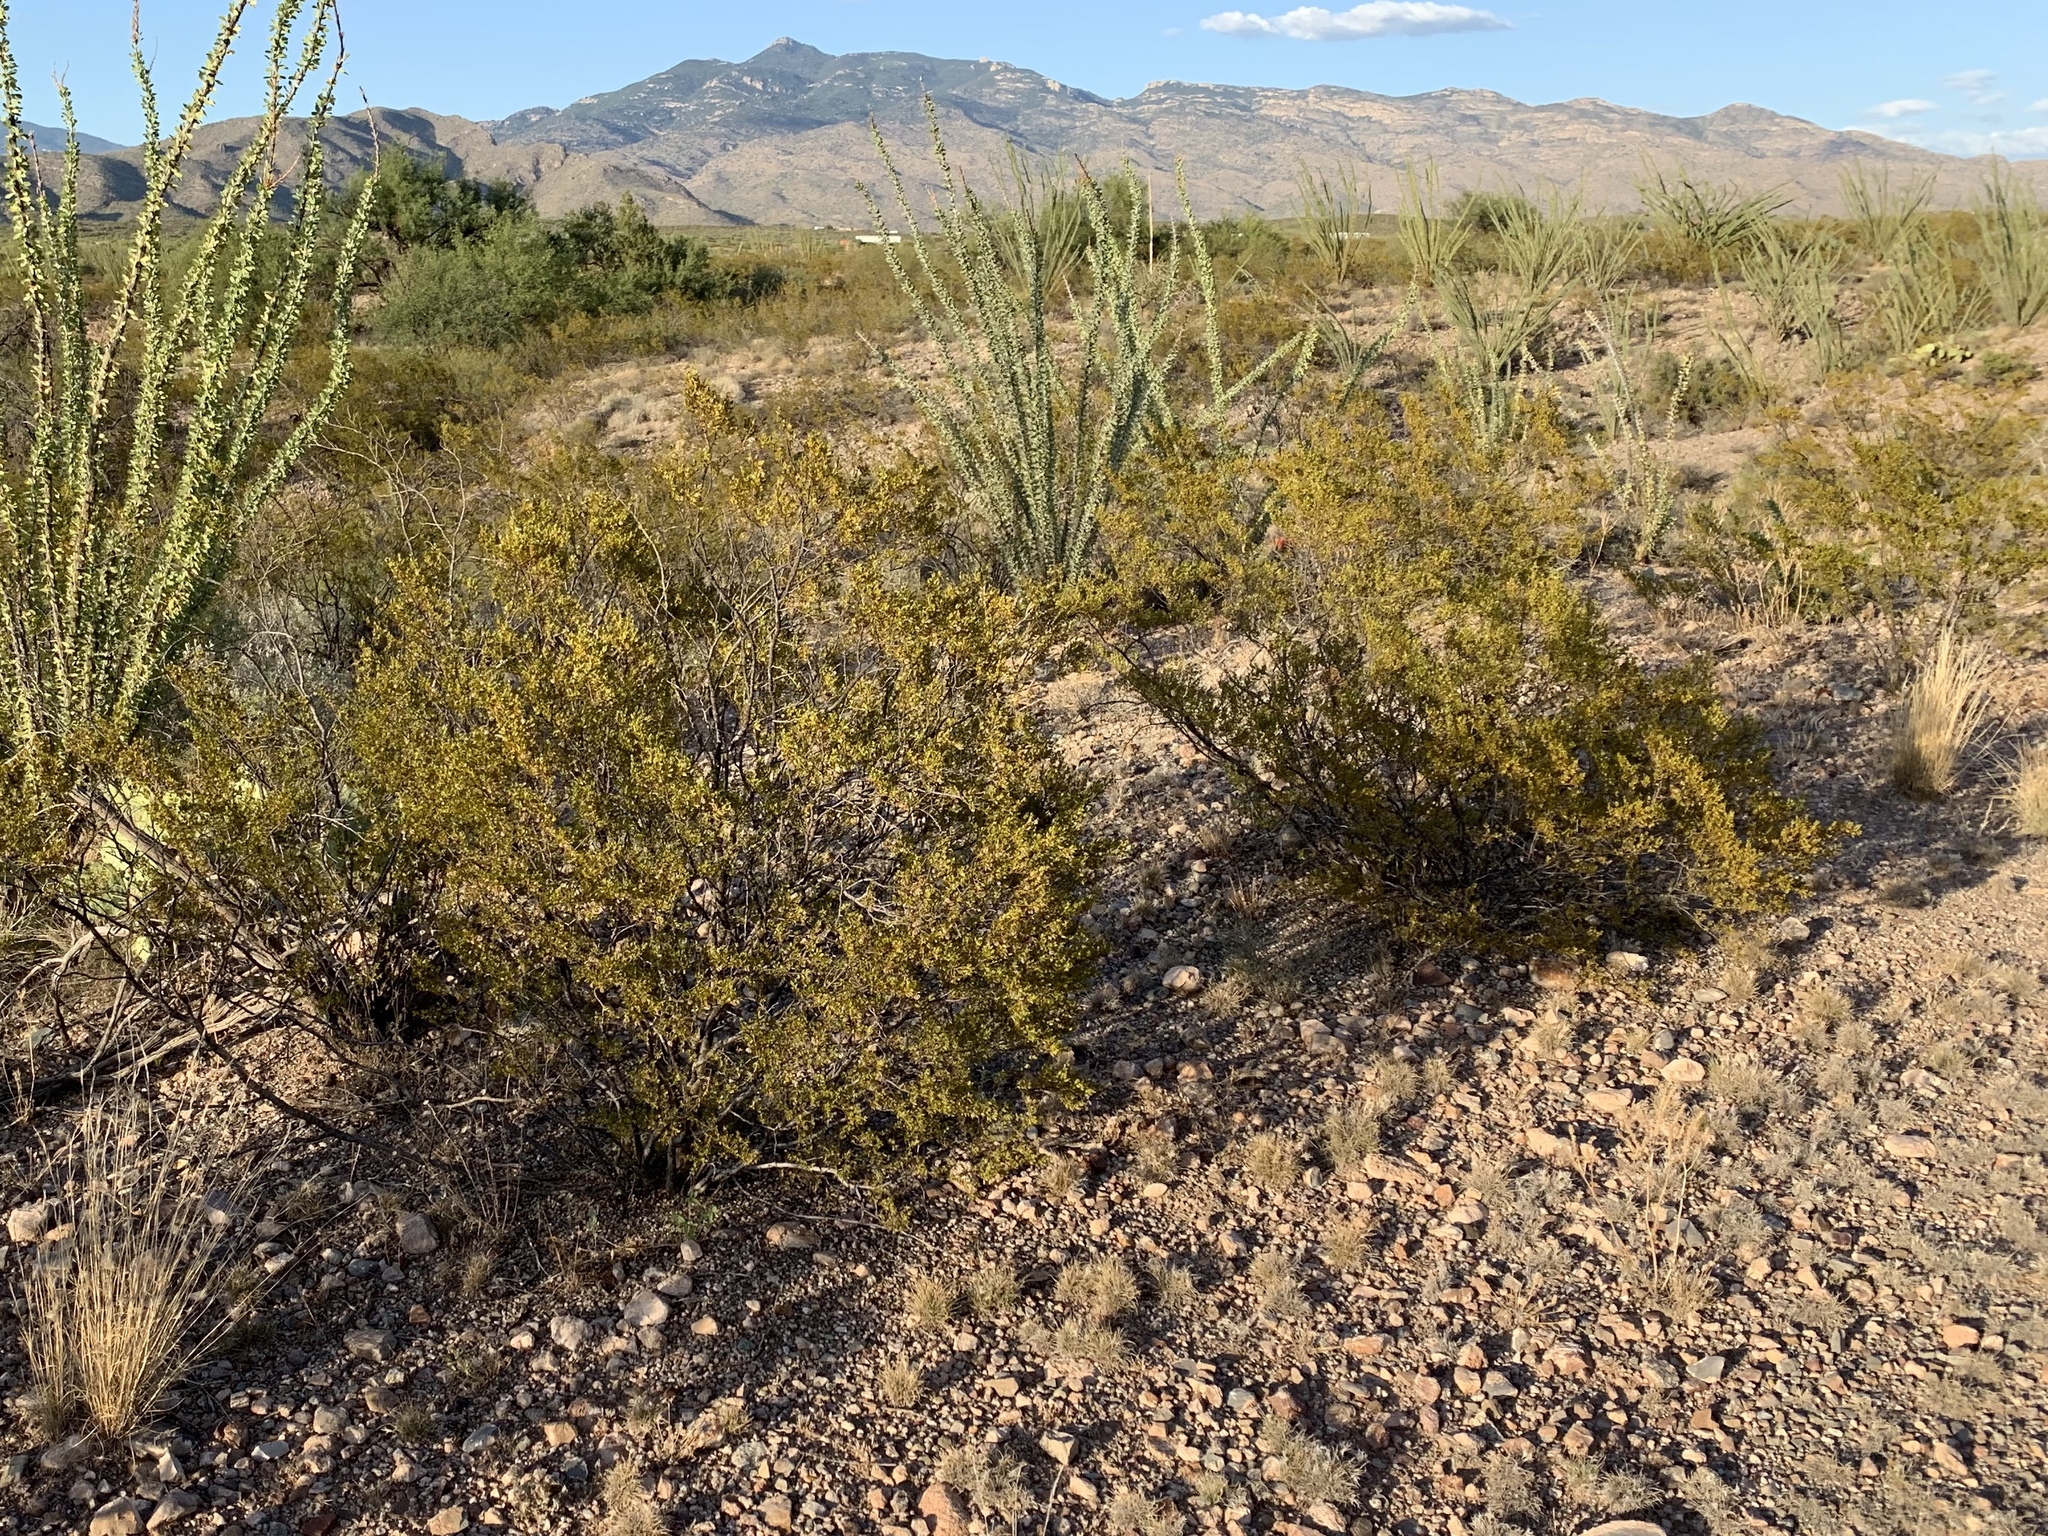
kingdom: Plantae
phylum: Tracheophyta
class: Magnoliopsida
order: Zygophyllales
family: Zygophyllaceae
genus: Larrea
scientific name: Larrea tridentata
